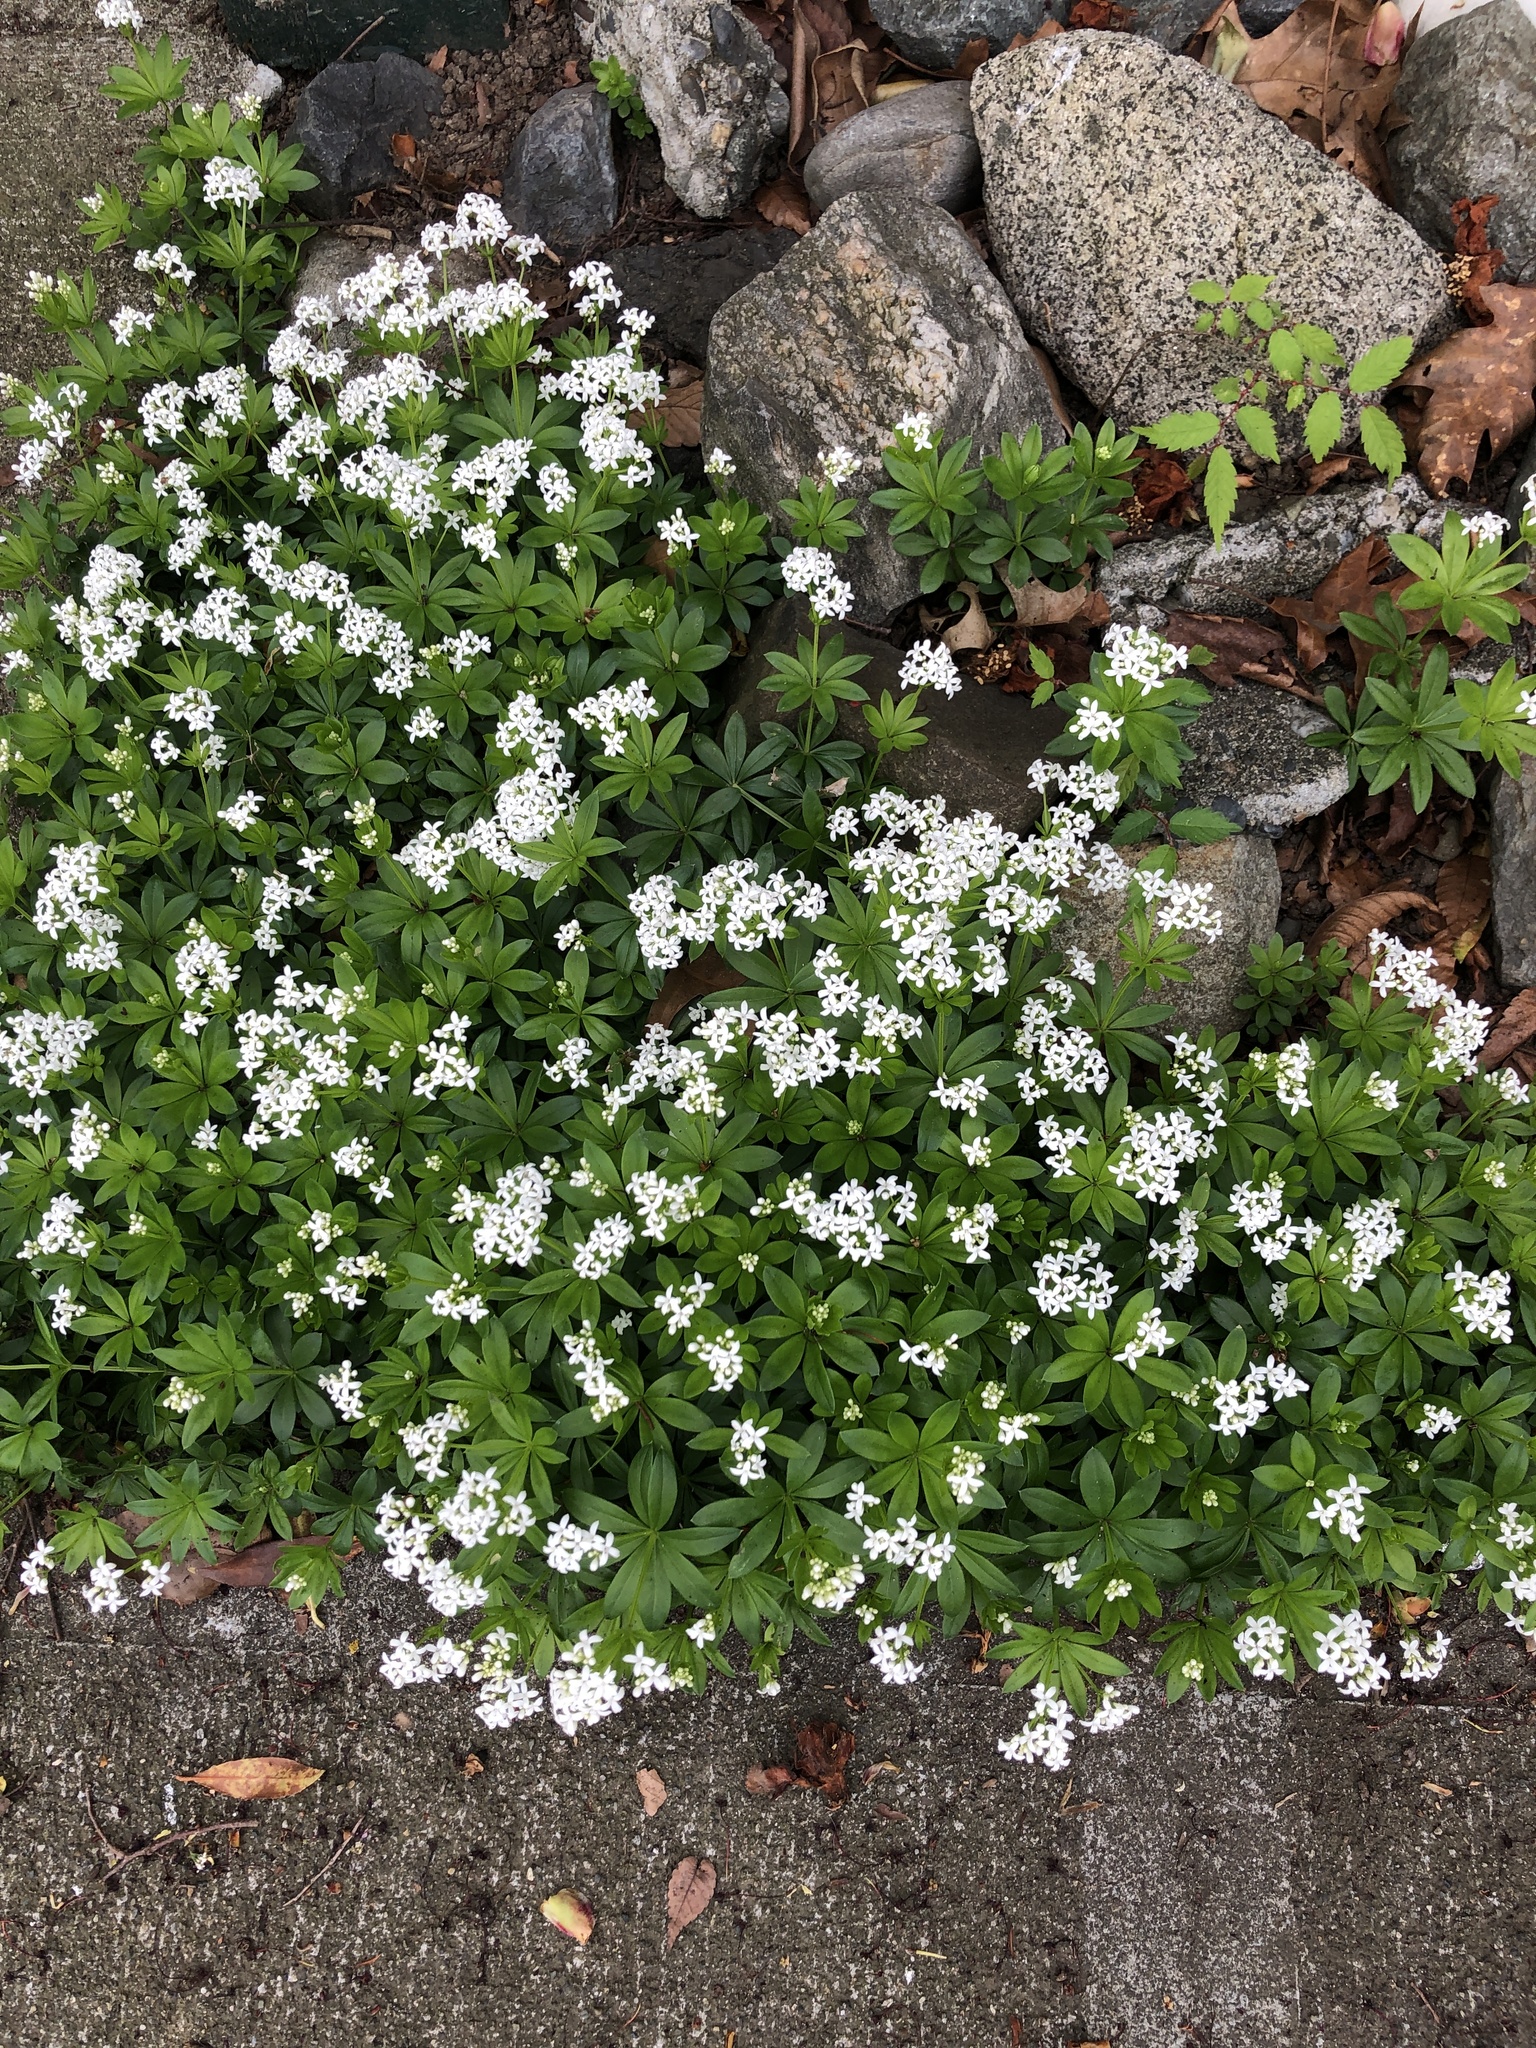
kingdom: Plantae
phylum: Tracheophyta
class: Magnoliopsida
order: Gentianales
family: Rubiaceae
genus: Galium
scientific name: Galium odoratum
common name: Sweet woodruff
